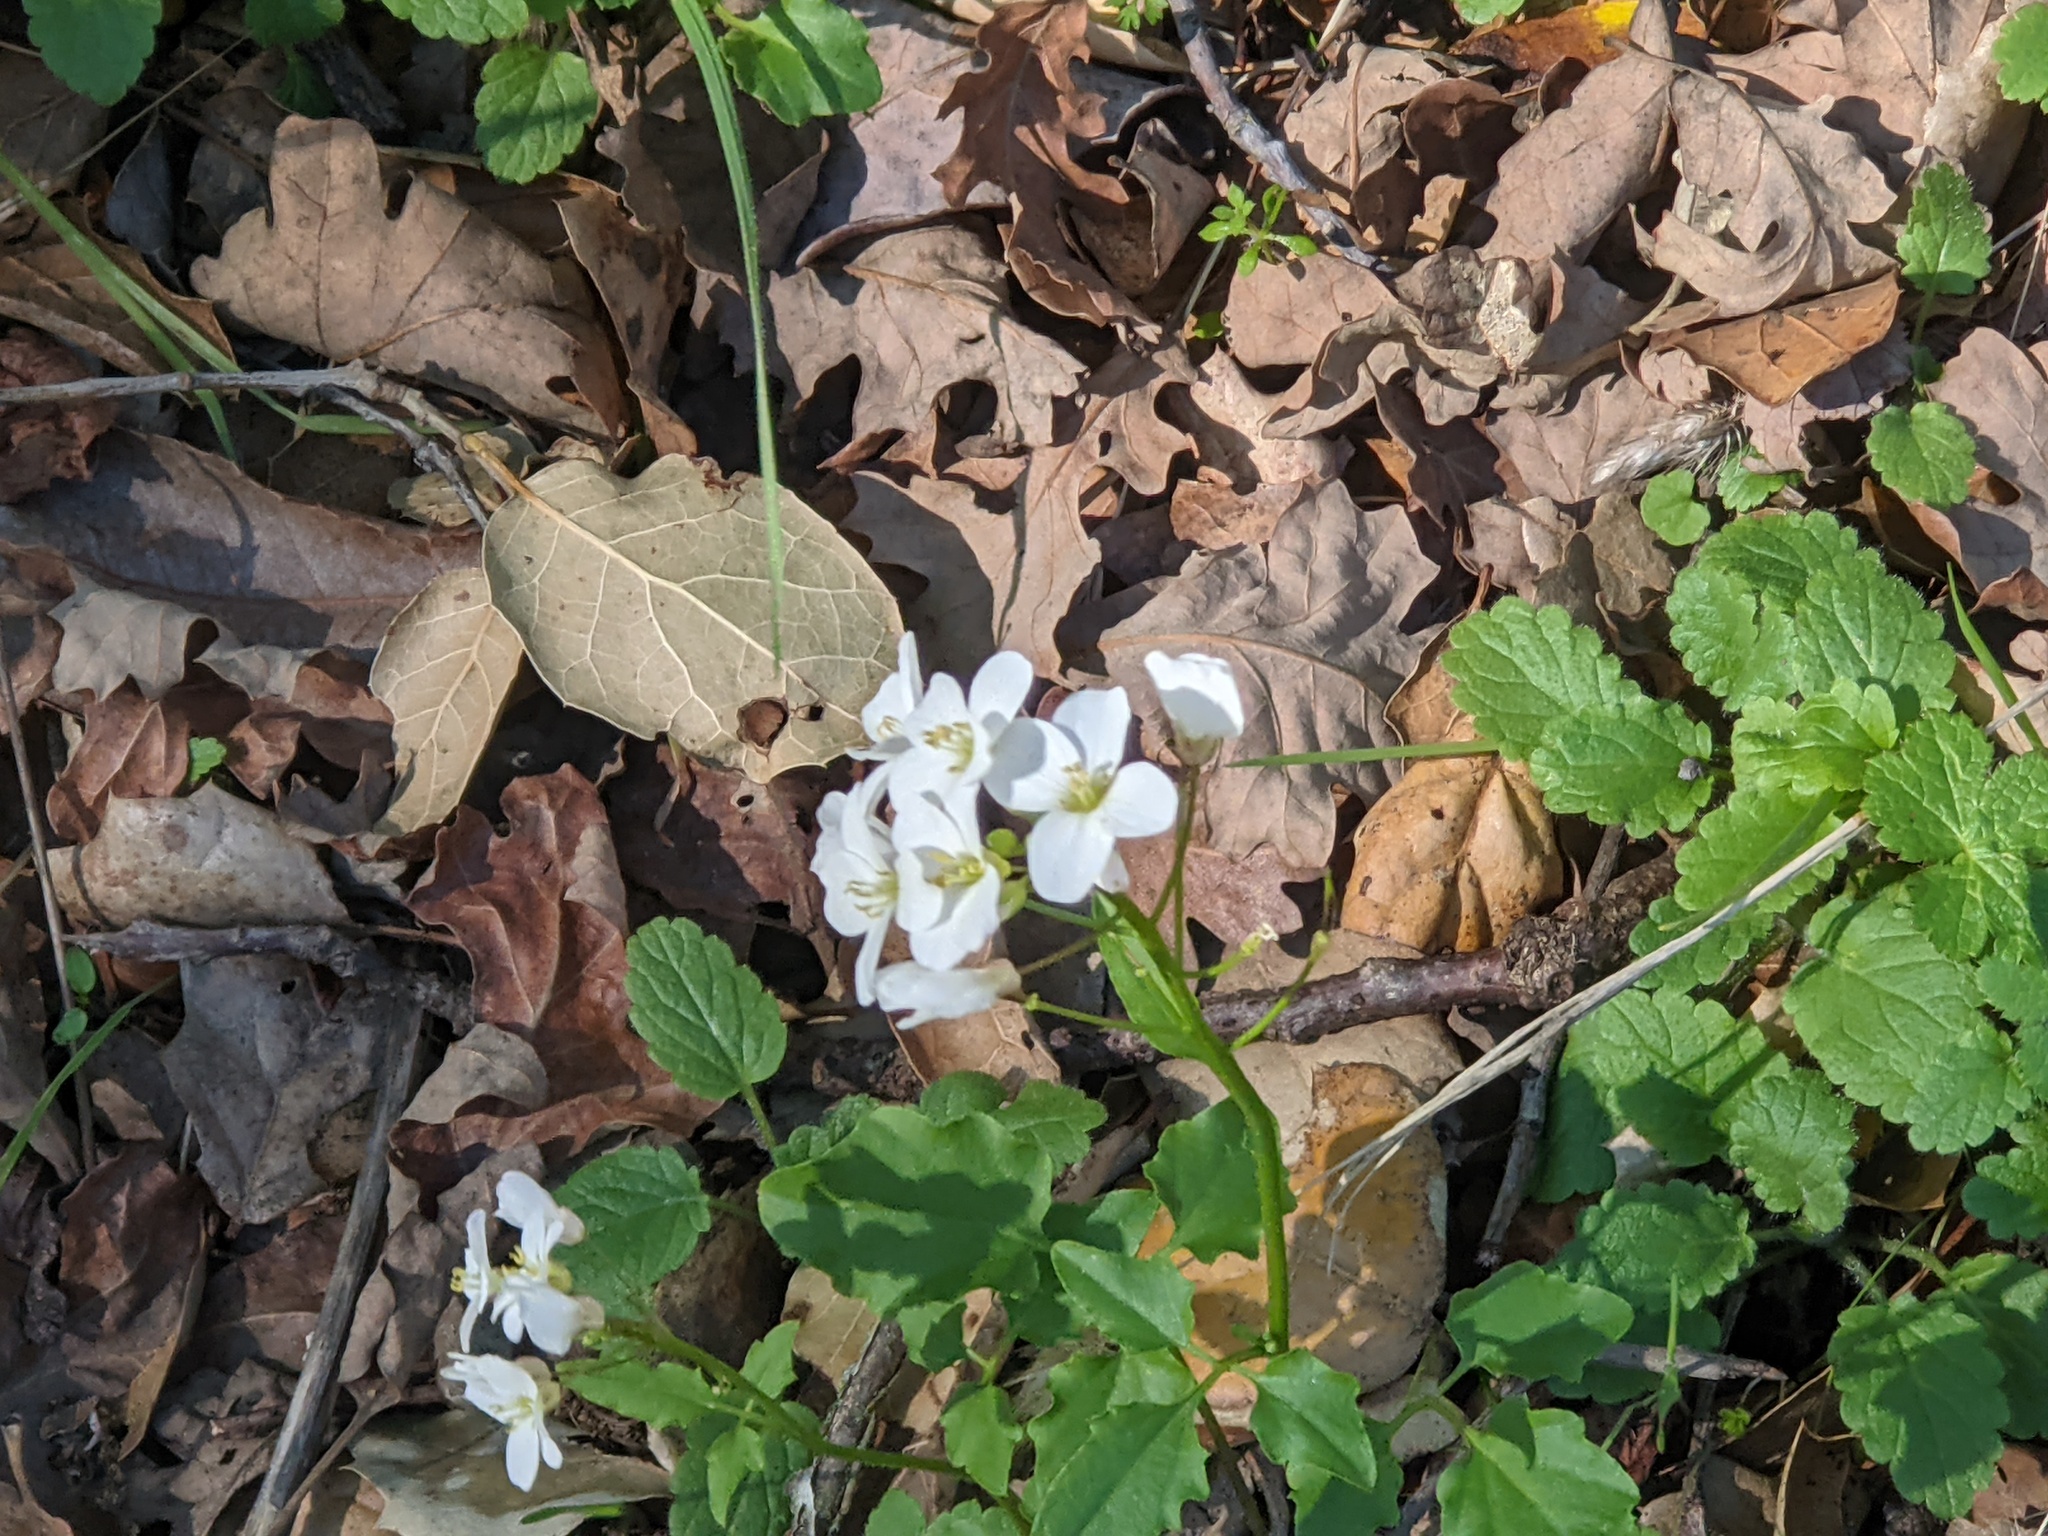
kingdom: Plantae
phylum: Tracheophyta
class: Magnoliopsida
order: Brassicales
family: Brassicaceae
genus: Cardamine
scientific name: Cardamine californica
